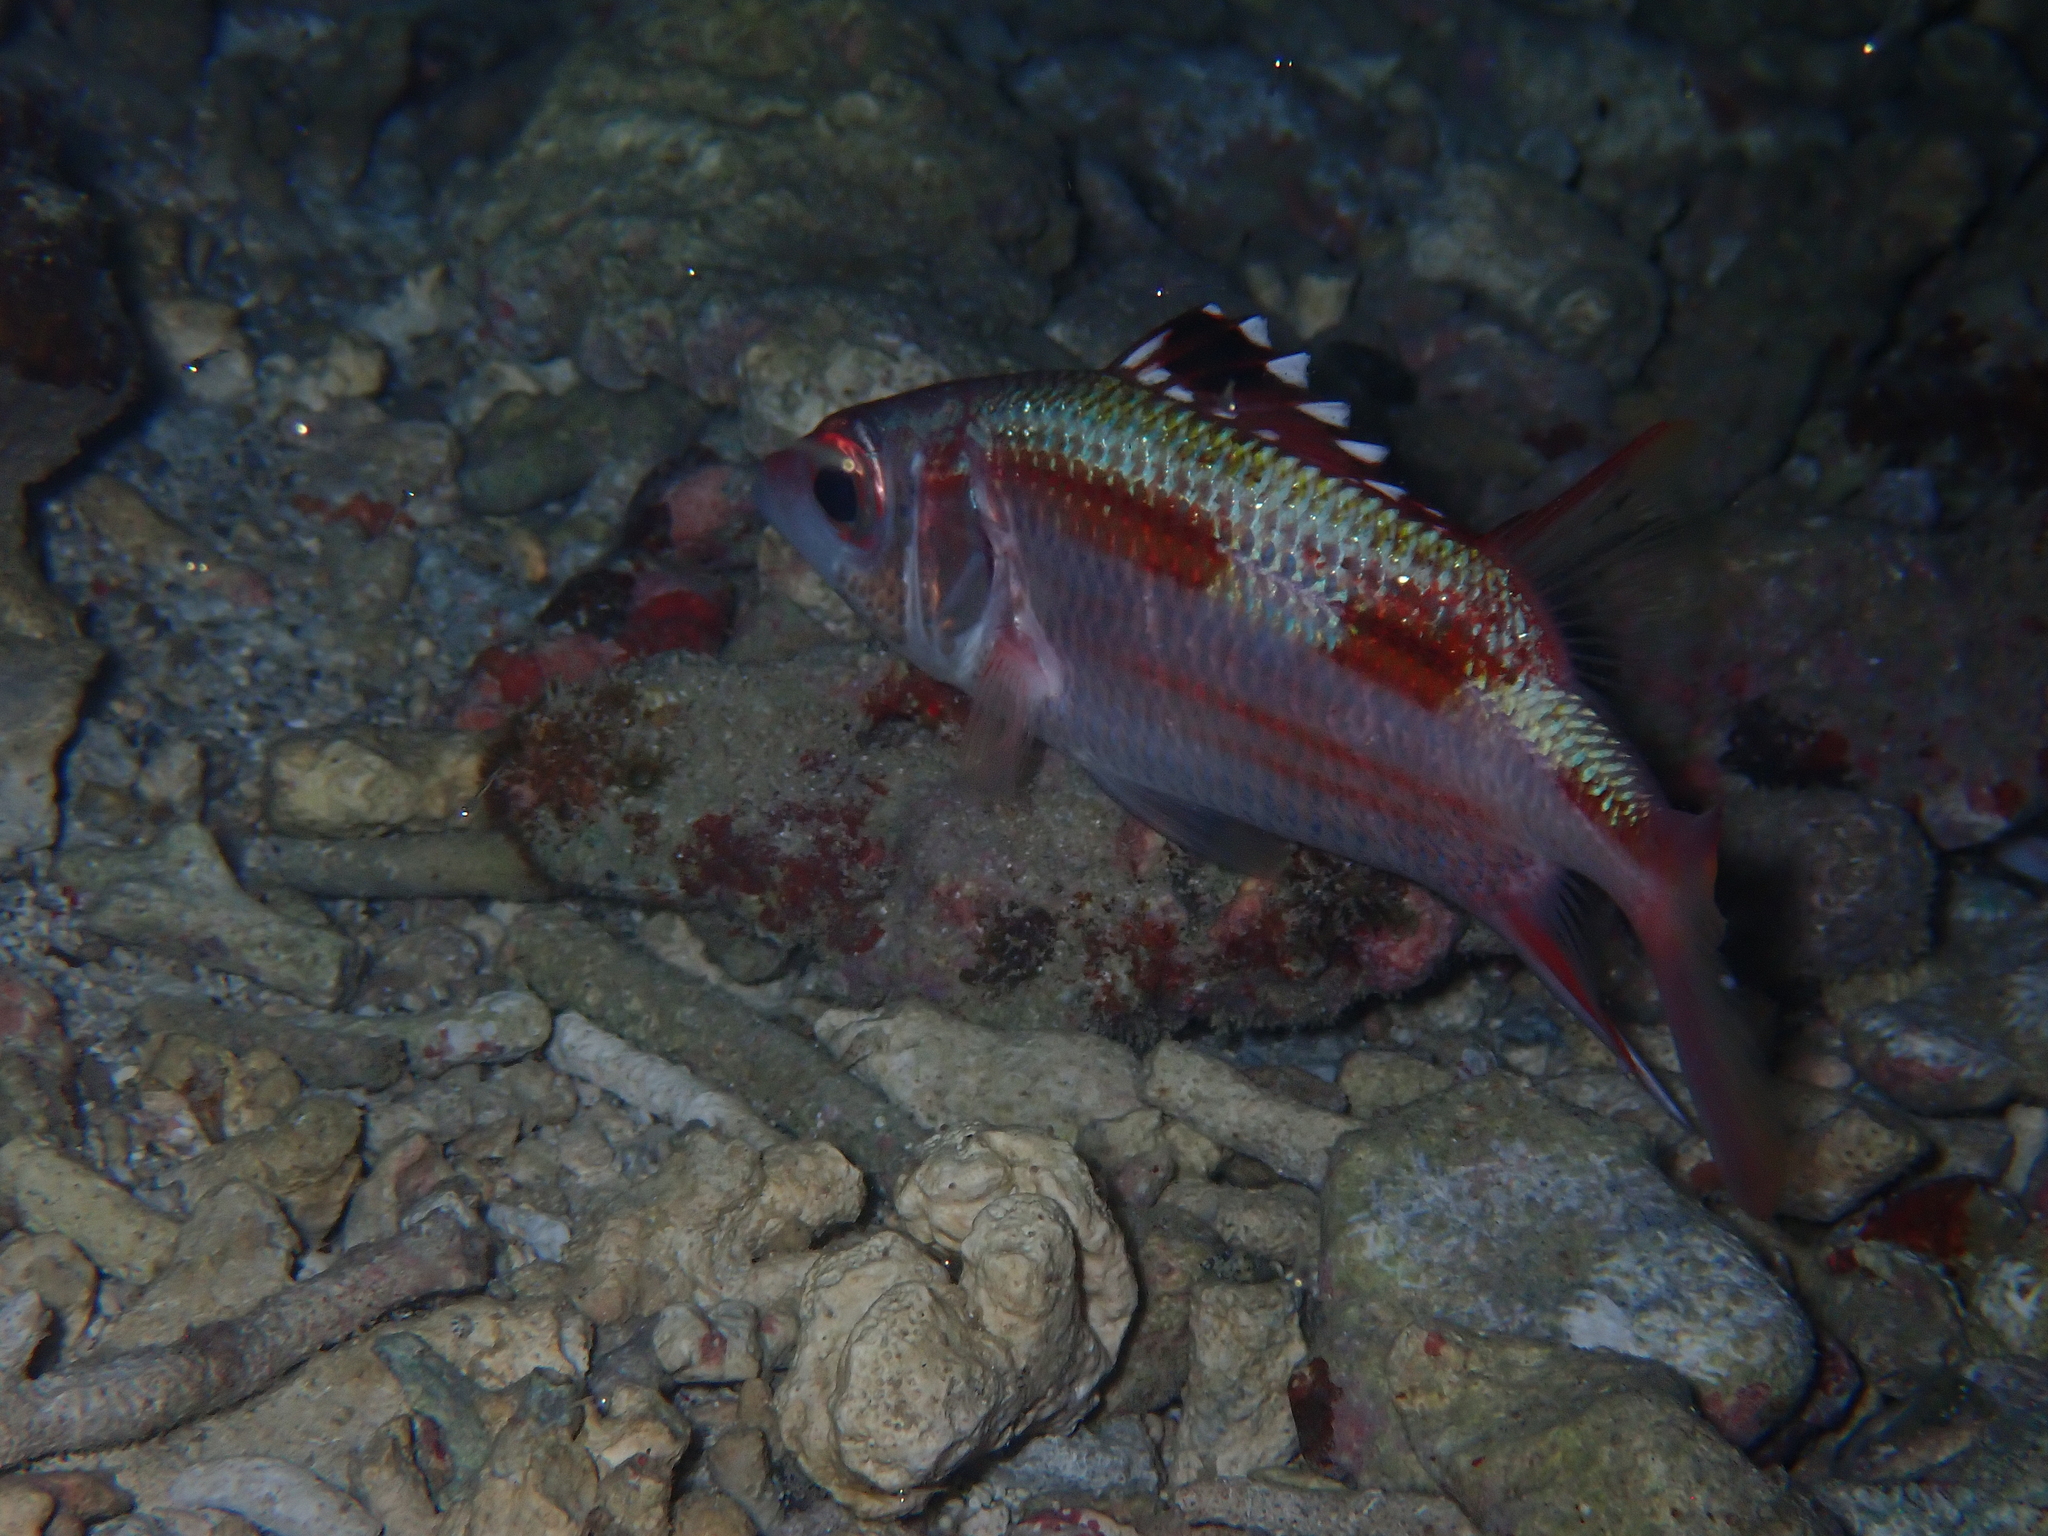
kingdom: Animalia
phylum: Chordata
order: Beryciformes
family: Holocentridae
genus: Neoniphon
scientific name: Neoniphon sammara
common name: Sammara squirrelfish
